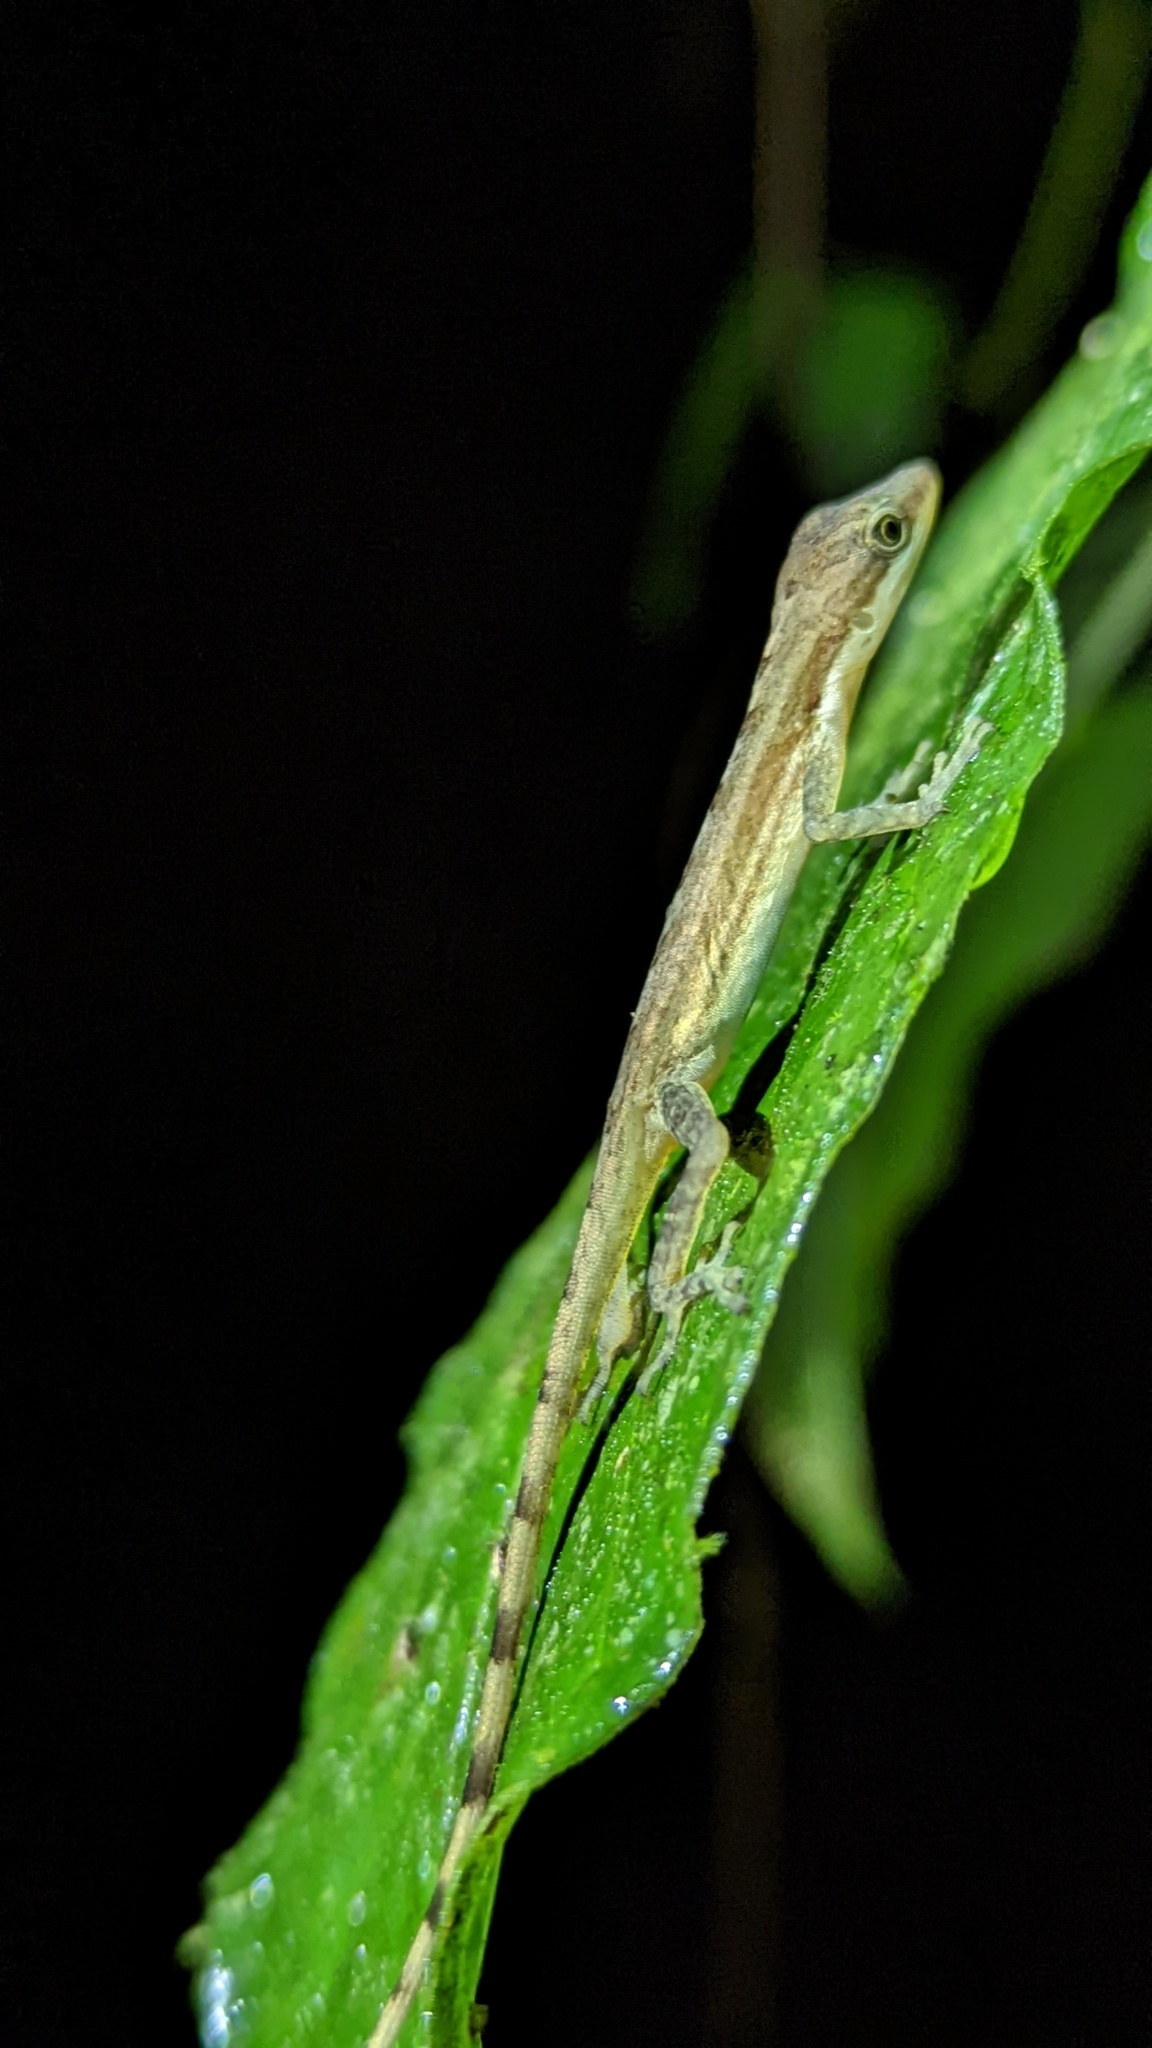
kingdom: Animalia
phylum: Chordata
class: Squamata
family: Dactyloidae
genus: Anolis
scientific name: Anolis limifrons
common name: Border anole
